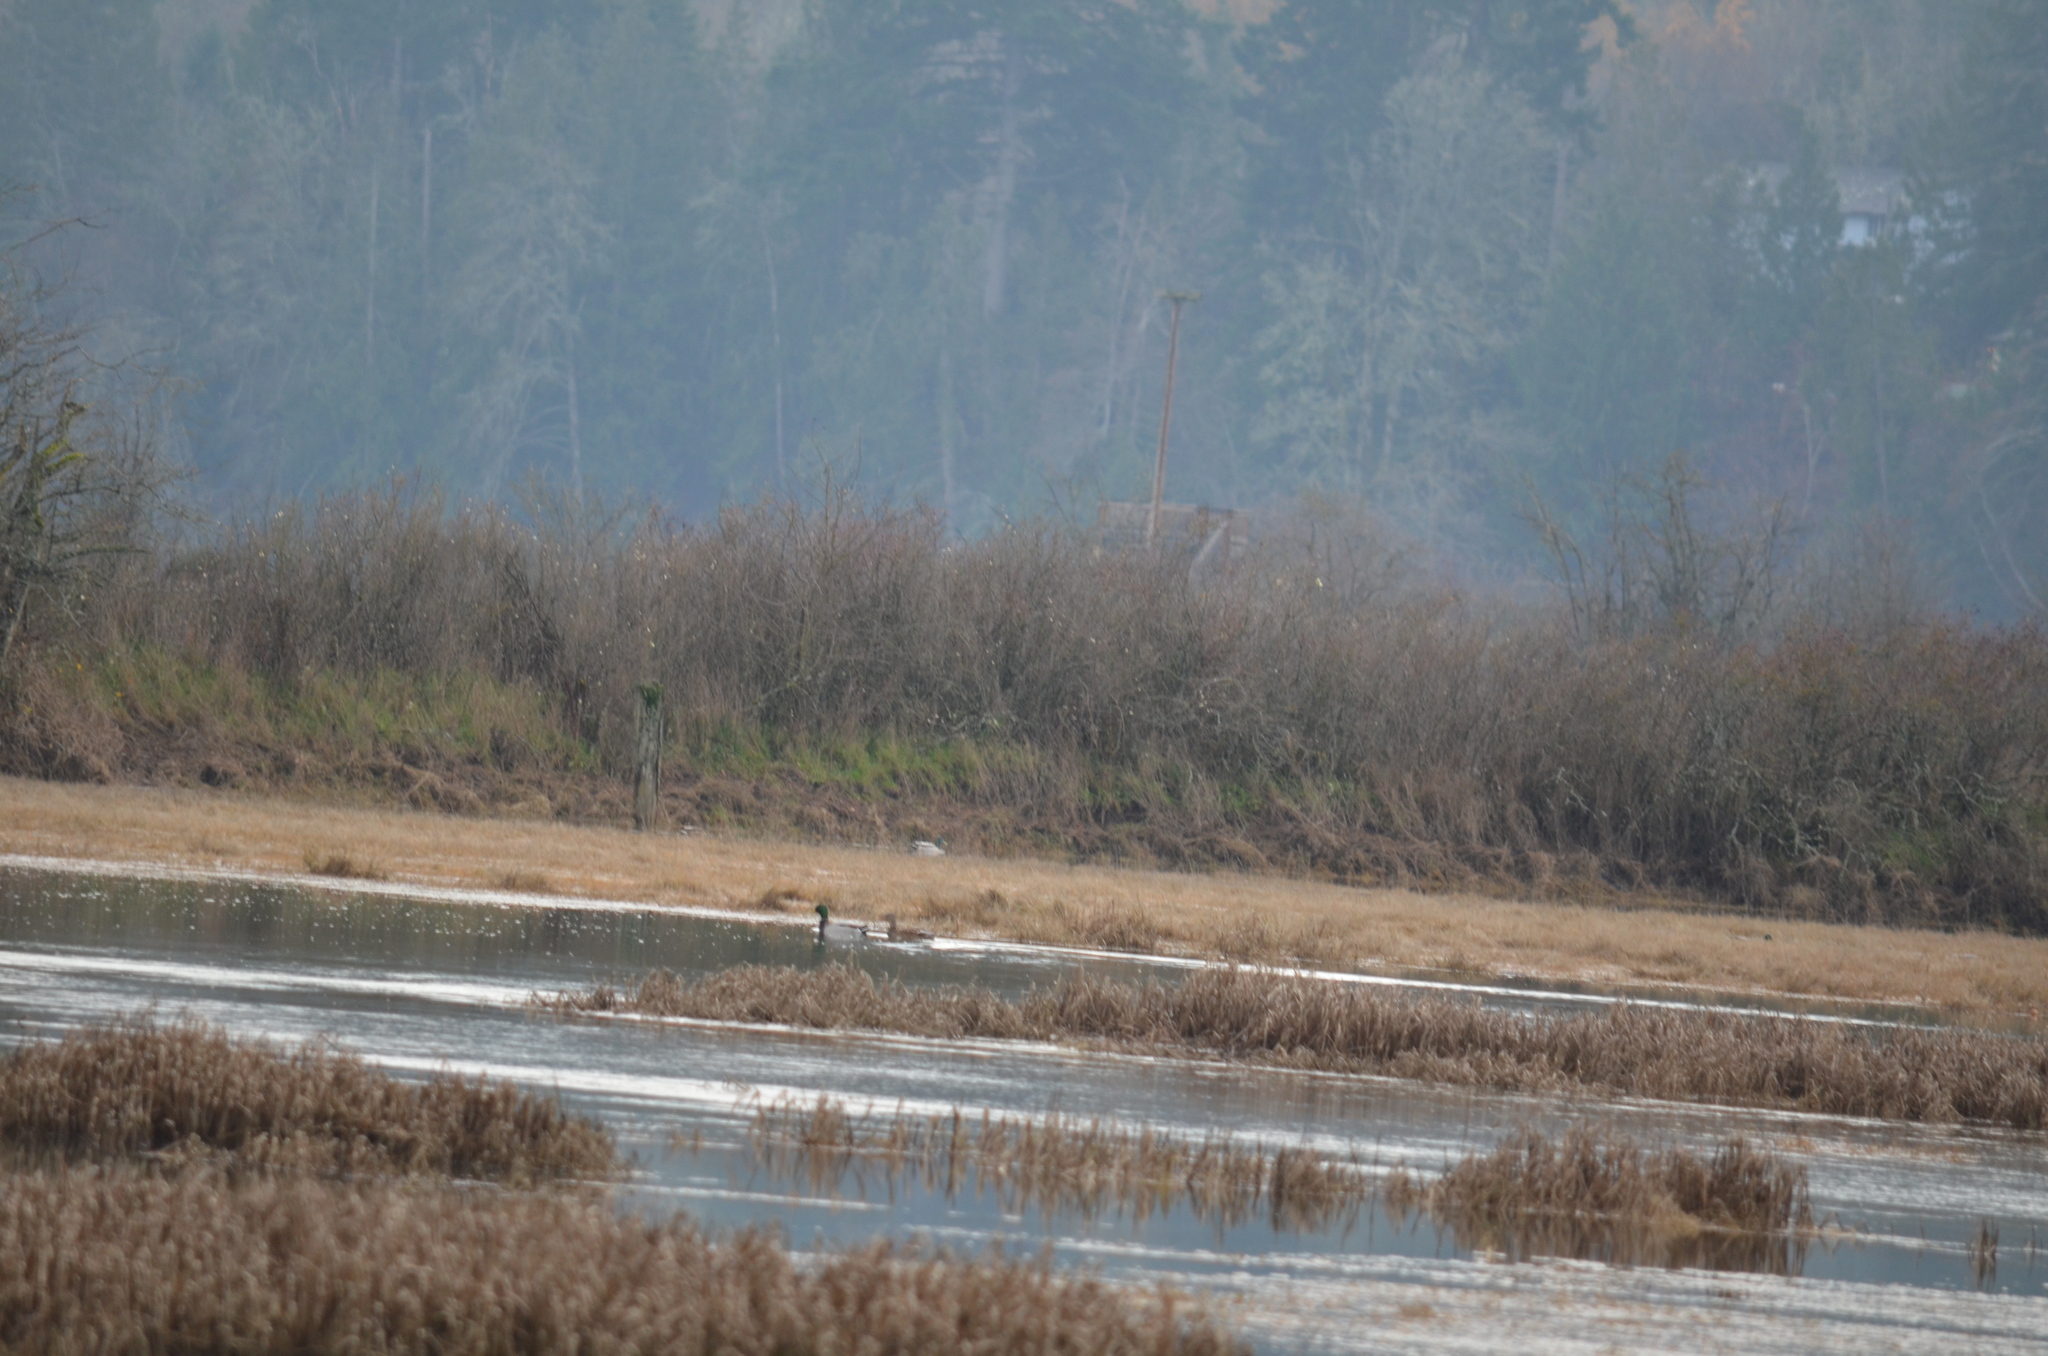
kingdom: Animalia
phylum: Chordata
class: Aves
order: Anseriformes
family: Anatidae
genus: Anas
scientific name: Anas platyrhynchos
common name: Mallard
